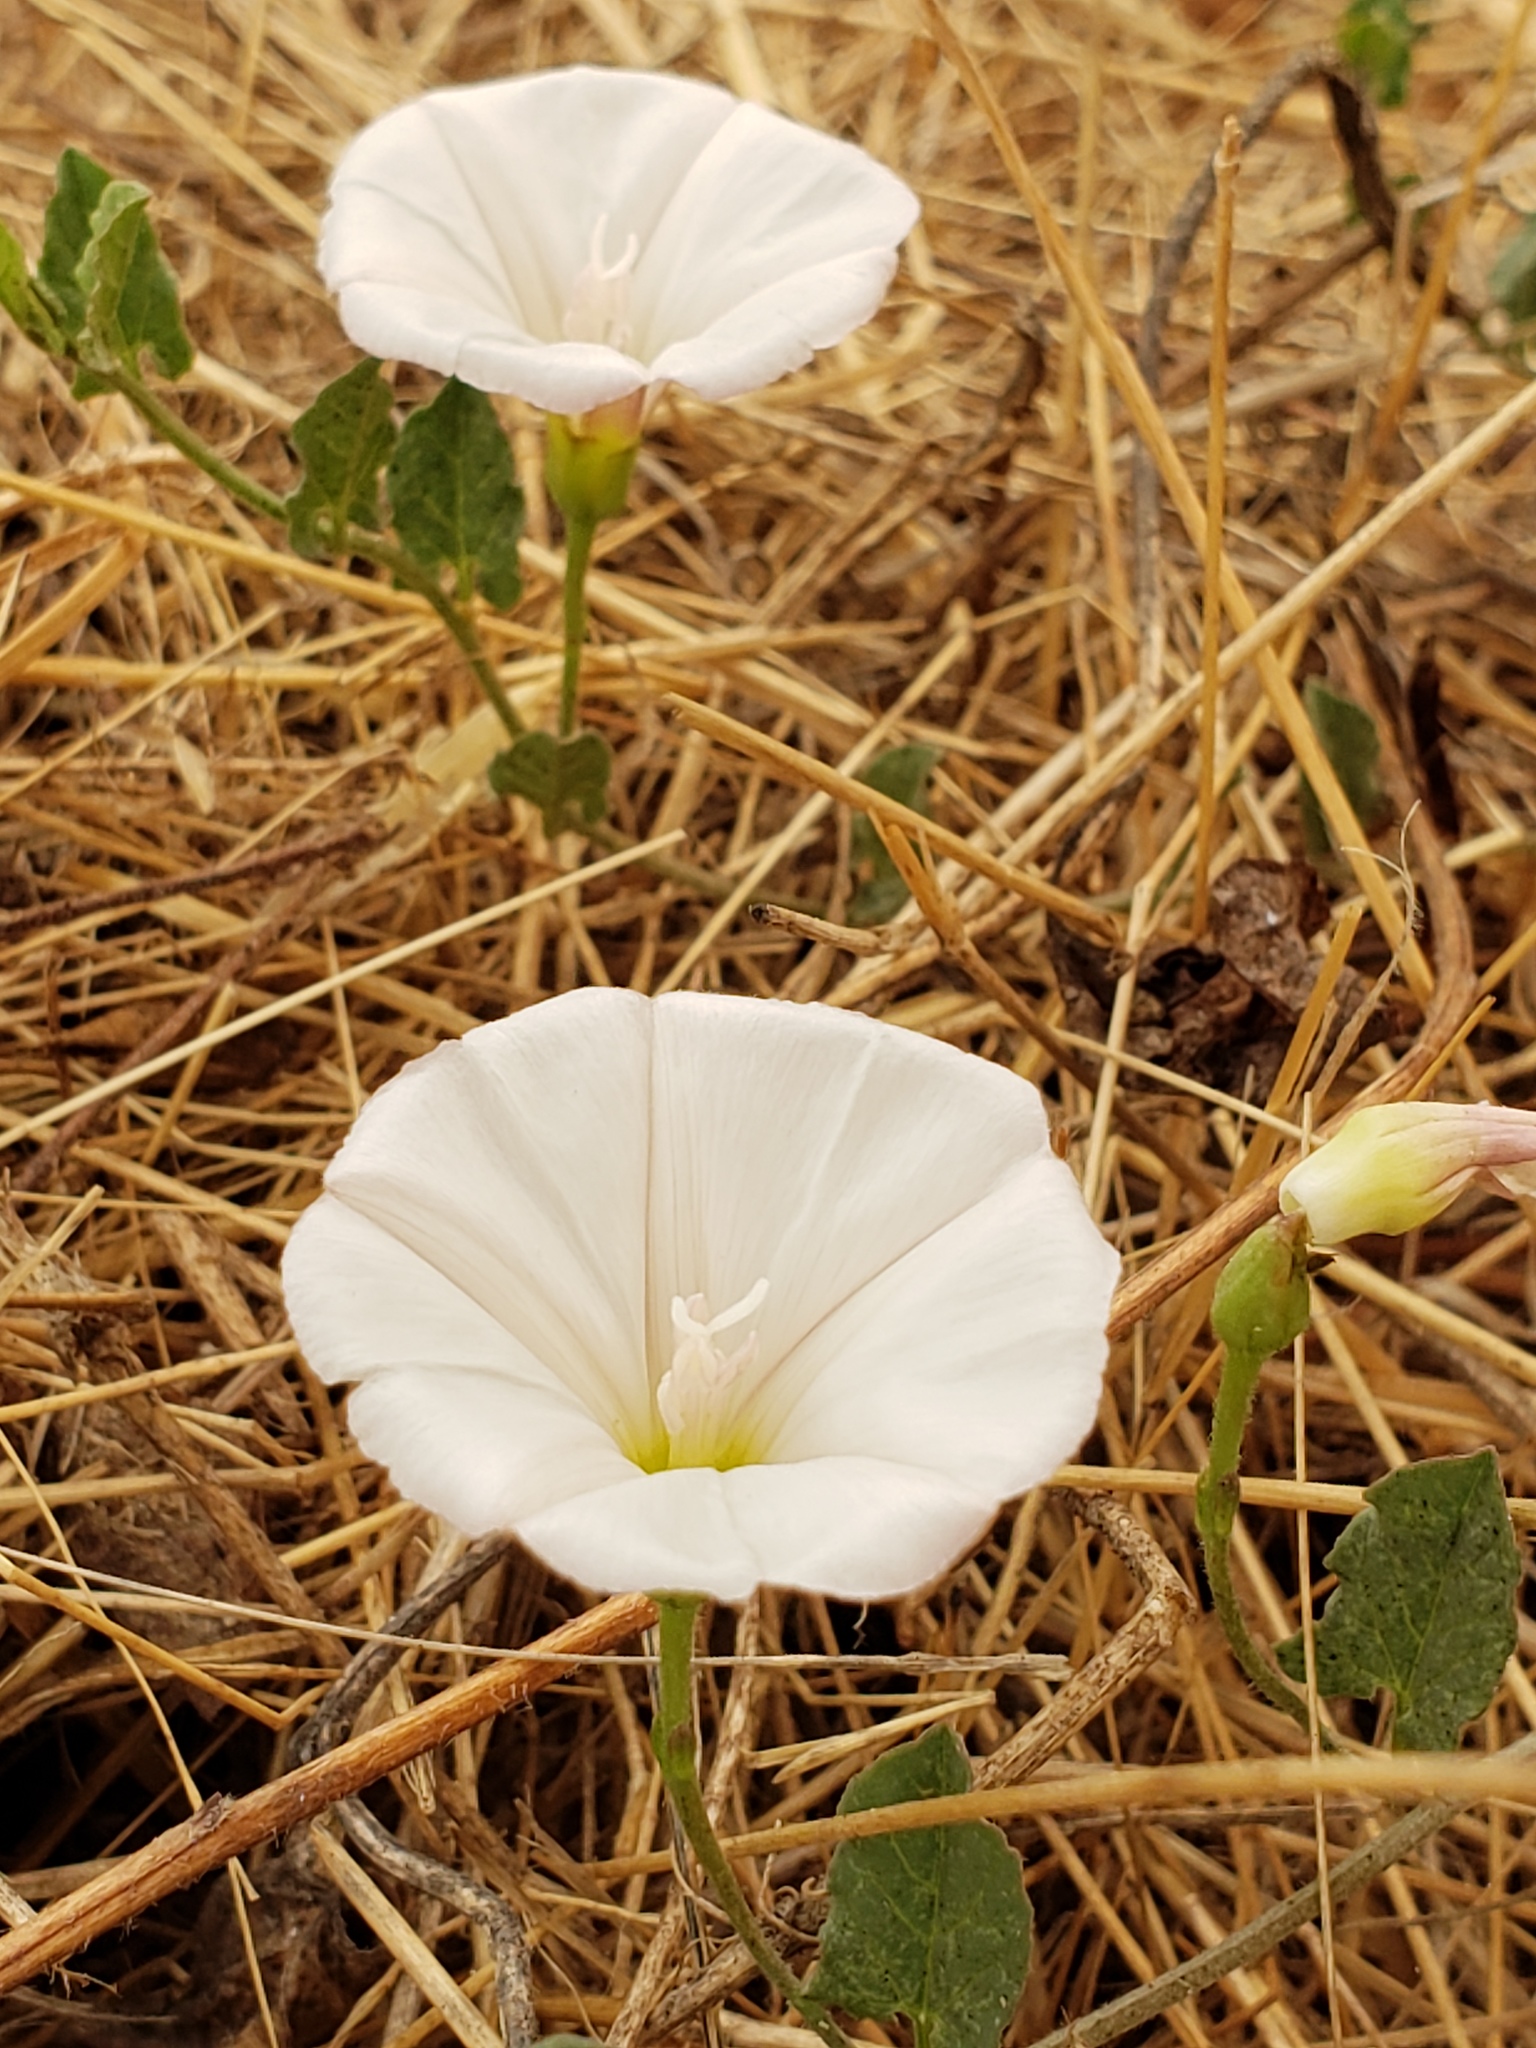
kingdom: Plantae
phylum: Tracheophyta
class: Magnoliopsida
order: Solanales
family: Convolvulaceae
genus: Convolvulus
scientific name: Convolvulus arvensis
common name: Field bindweed
